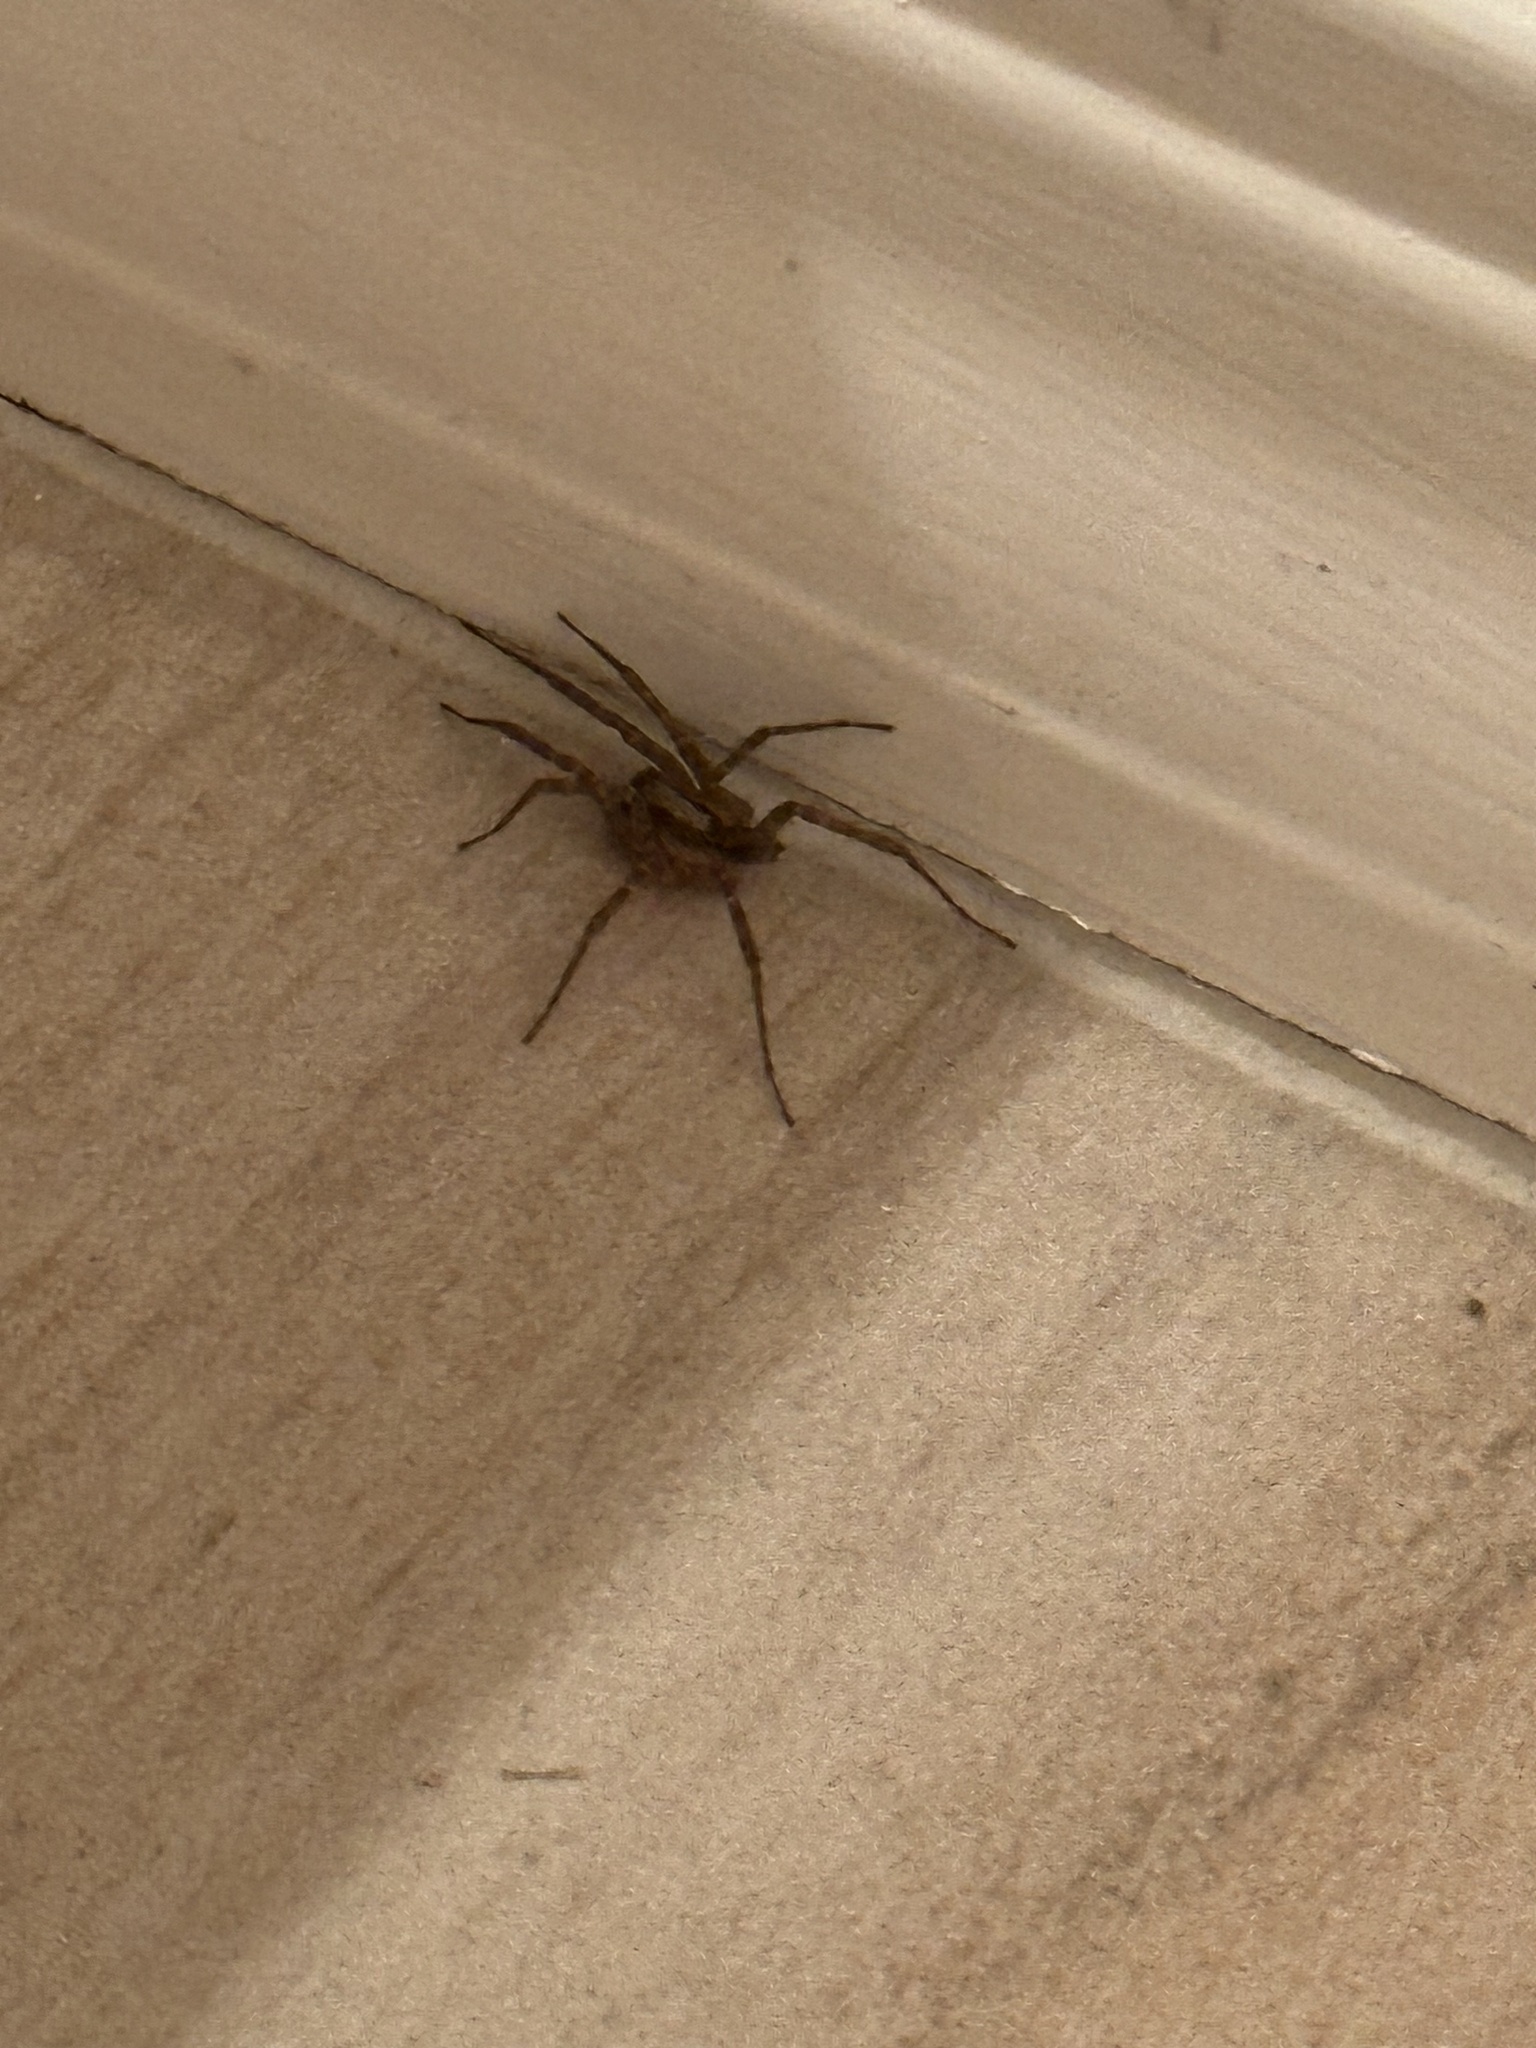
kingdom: Animalia
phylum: Arthropoda
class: Arachnida
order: Araneae
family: Agelenidae
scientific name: Agelenidae
